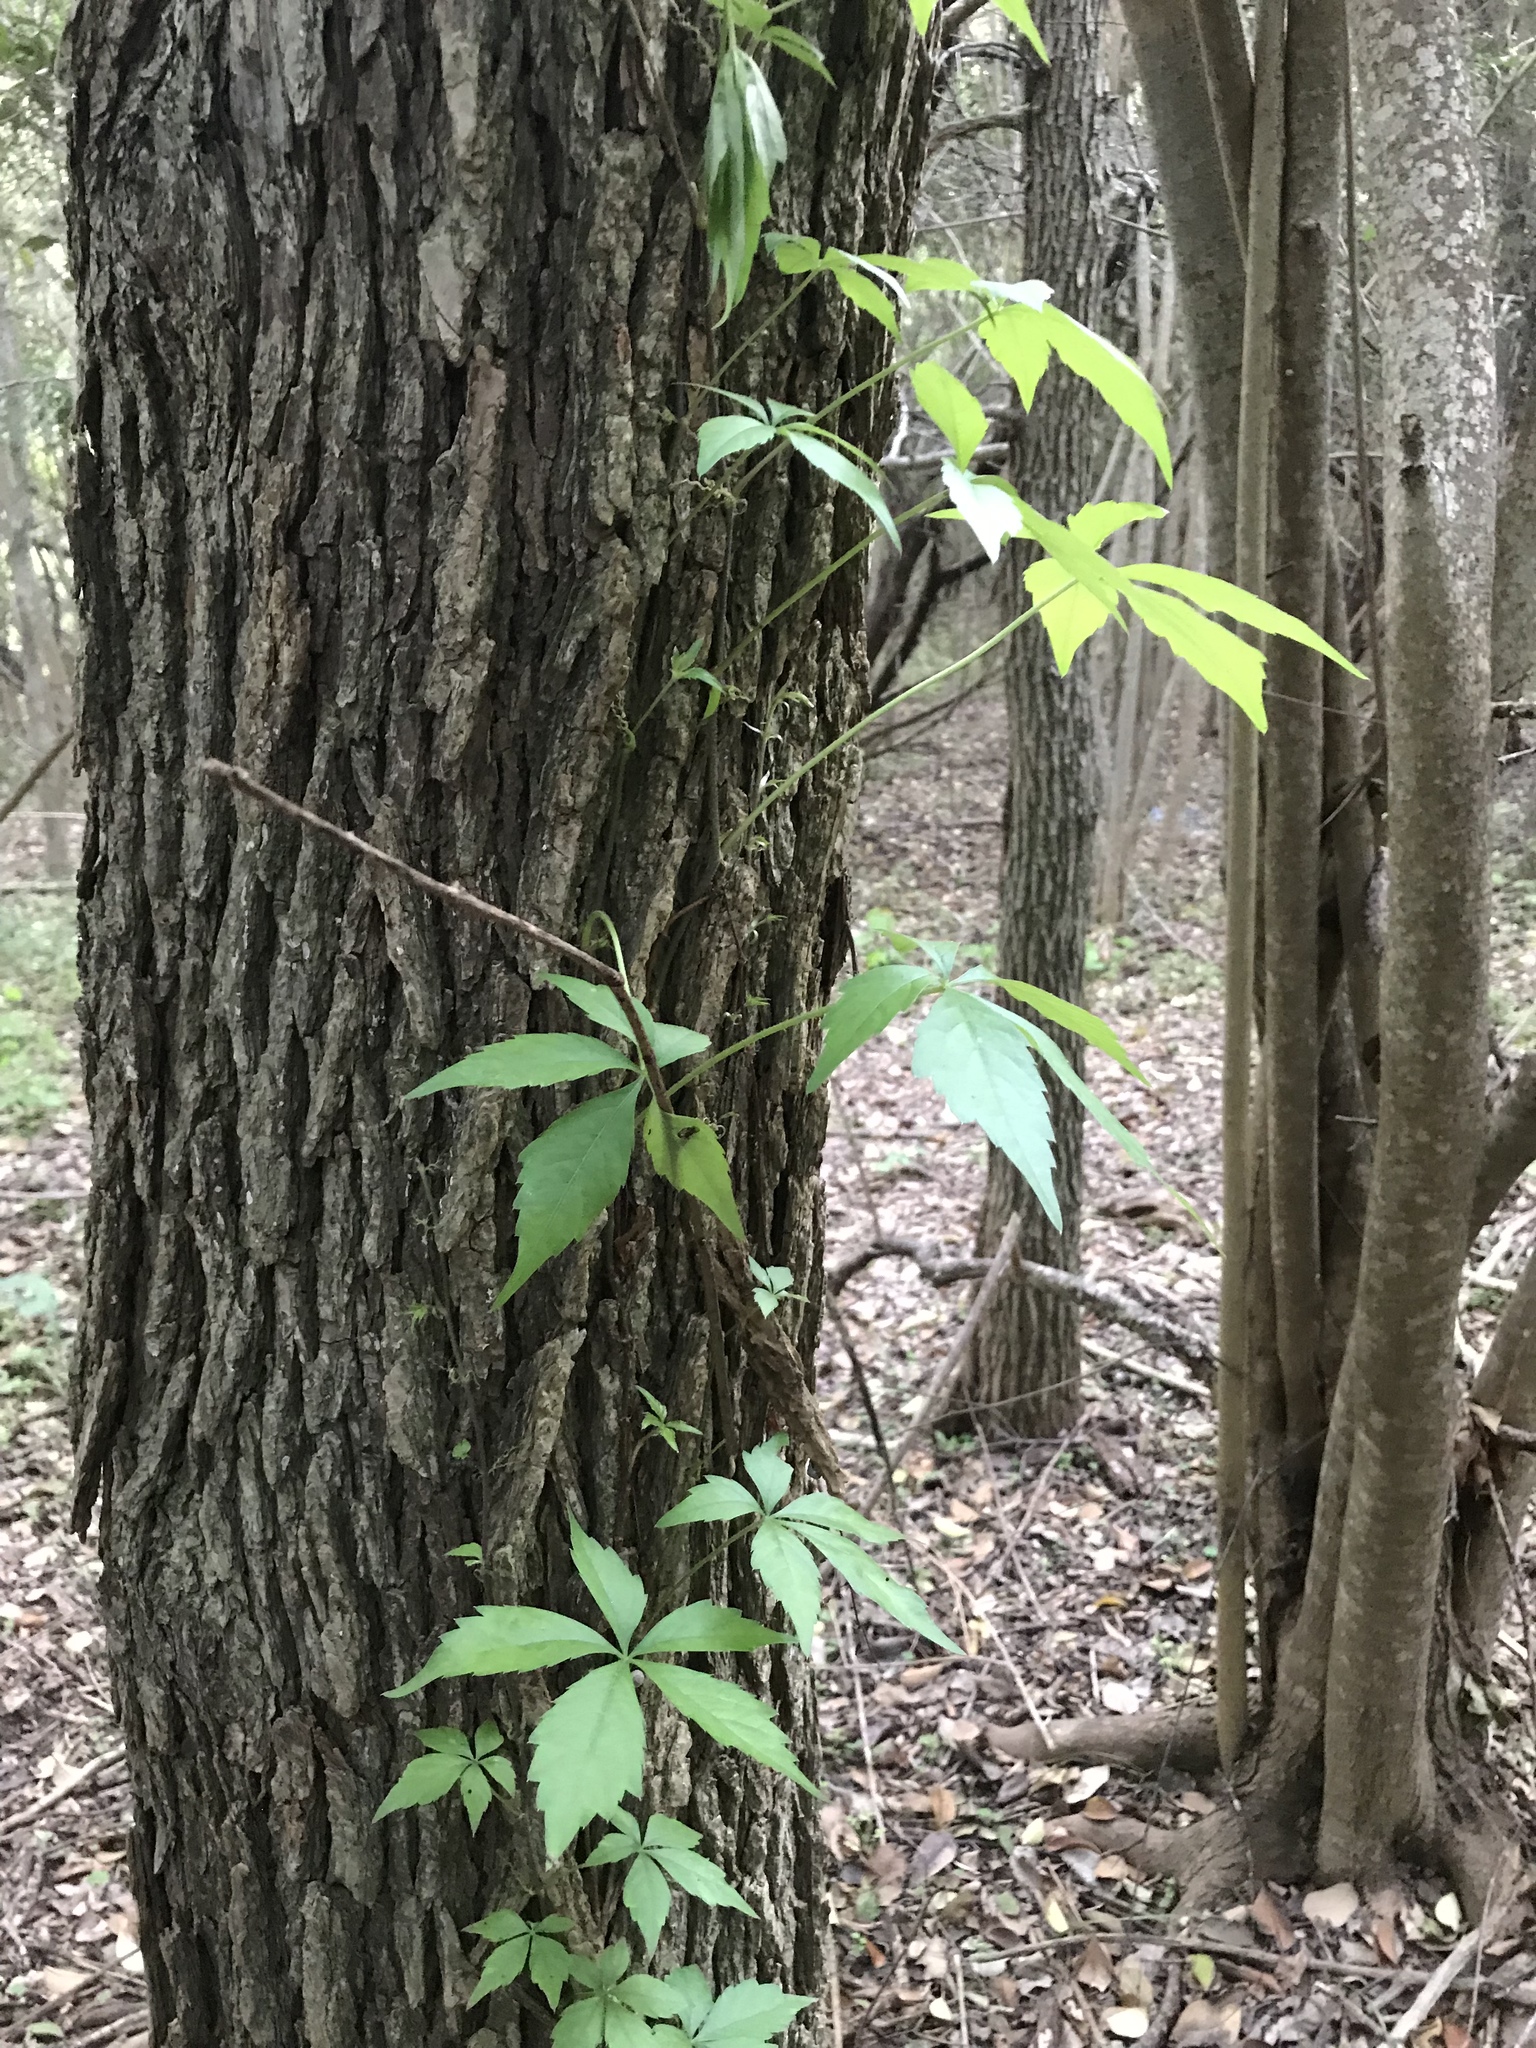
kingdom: Plantae
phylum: Tracheophyta
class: Magnoliopsida
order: Vitales
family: Vitaceae
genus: Parthenocissus
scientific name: Parthenocissus quinquefolia
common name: Virginia-creeper
